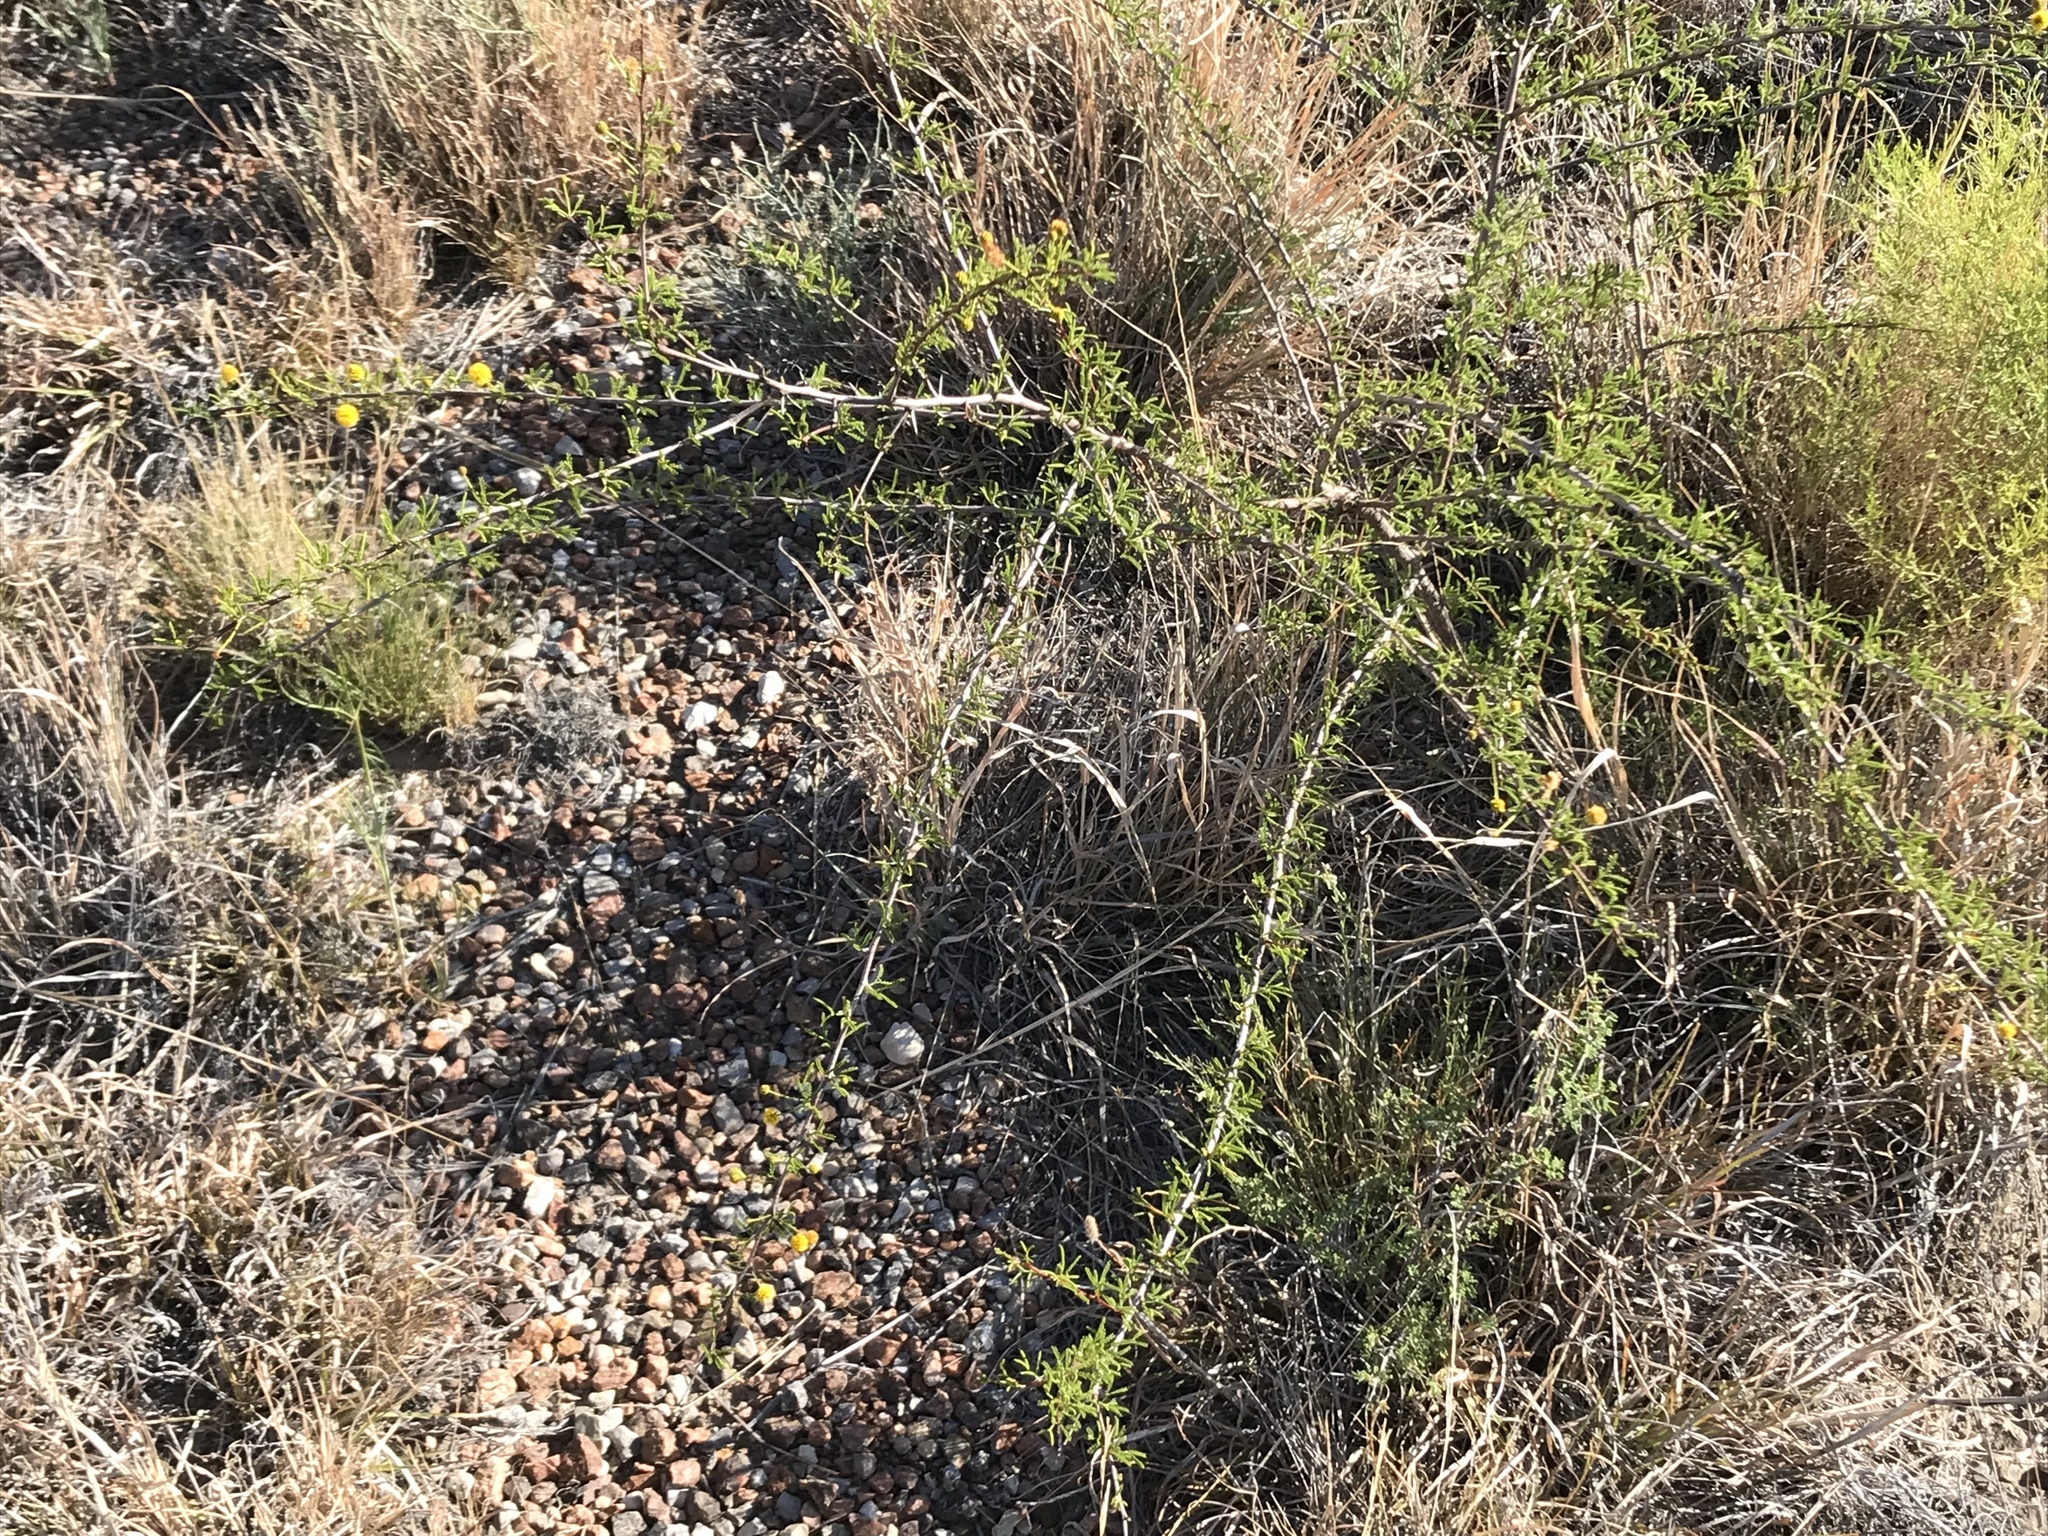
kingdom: Plantae
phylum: Tracheophyta
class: Magnoliopsida
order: Fabales
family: Fabaceae
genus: Vachellia
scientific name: Vachellia vernicosa
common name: Viscid acacia
